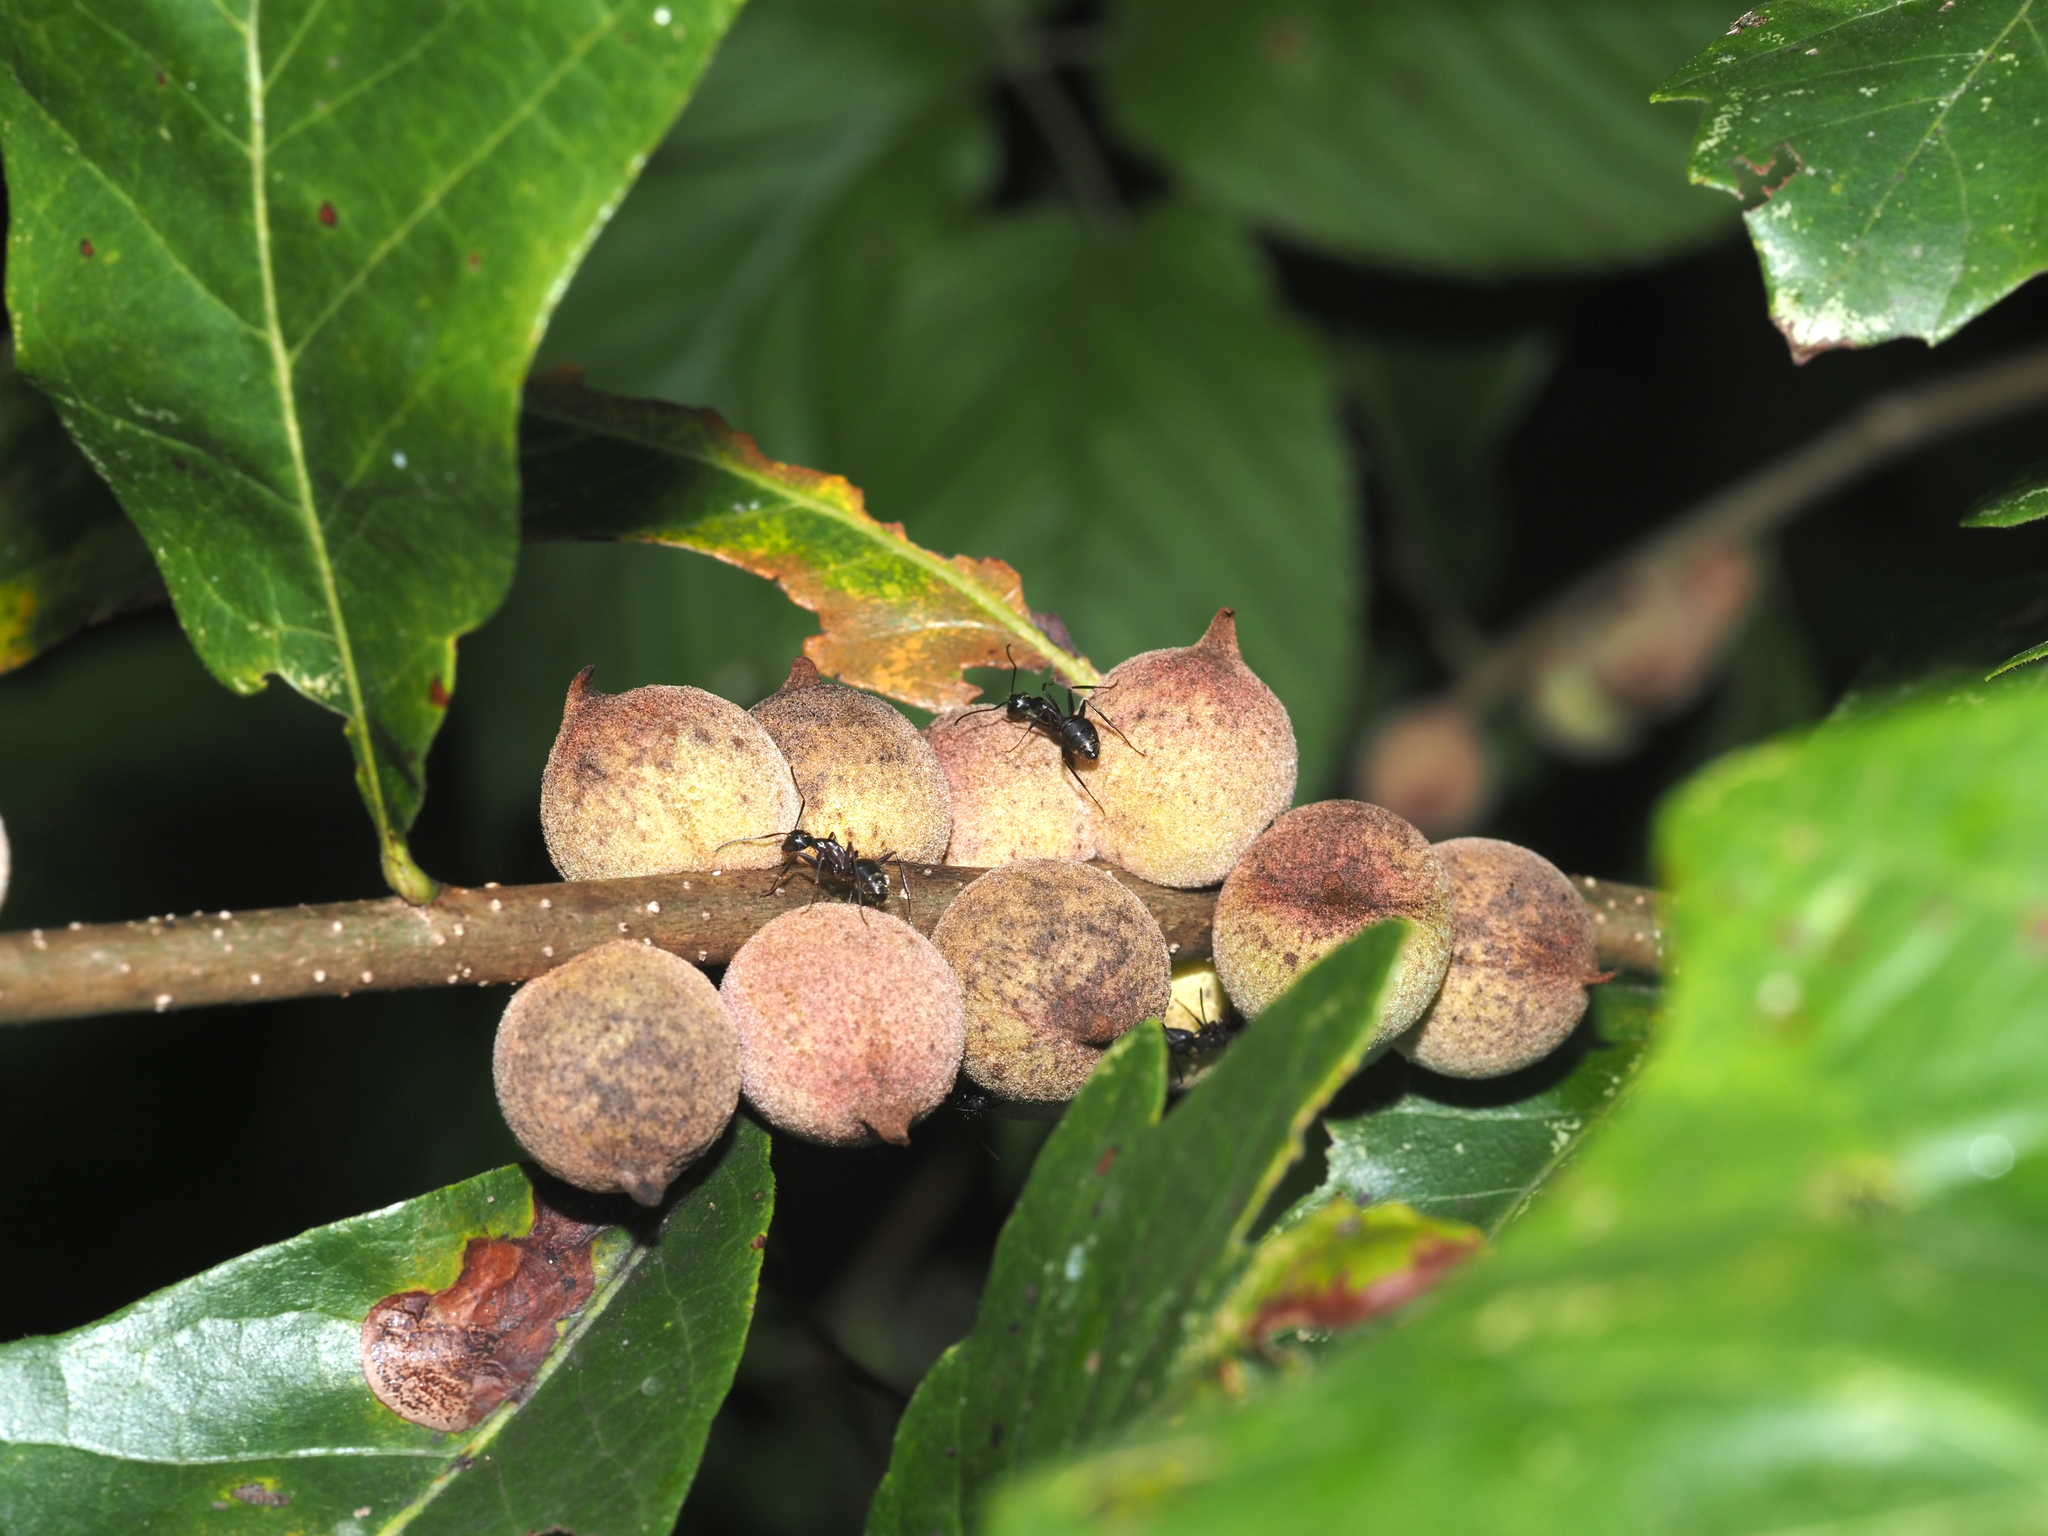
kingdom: Animalia
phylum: Arthropoda
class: Insecta
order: Hymenoptera
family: Cynipidae
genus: Disholcaspis
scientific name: Disholcaspis
